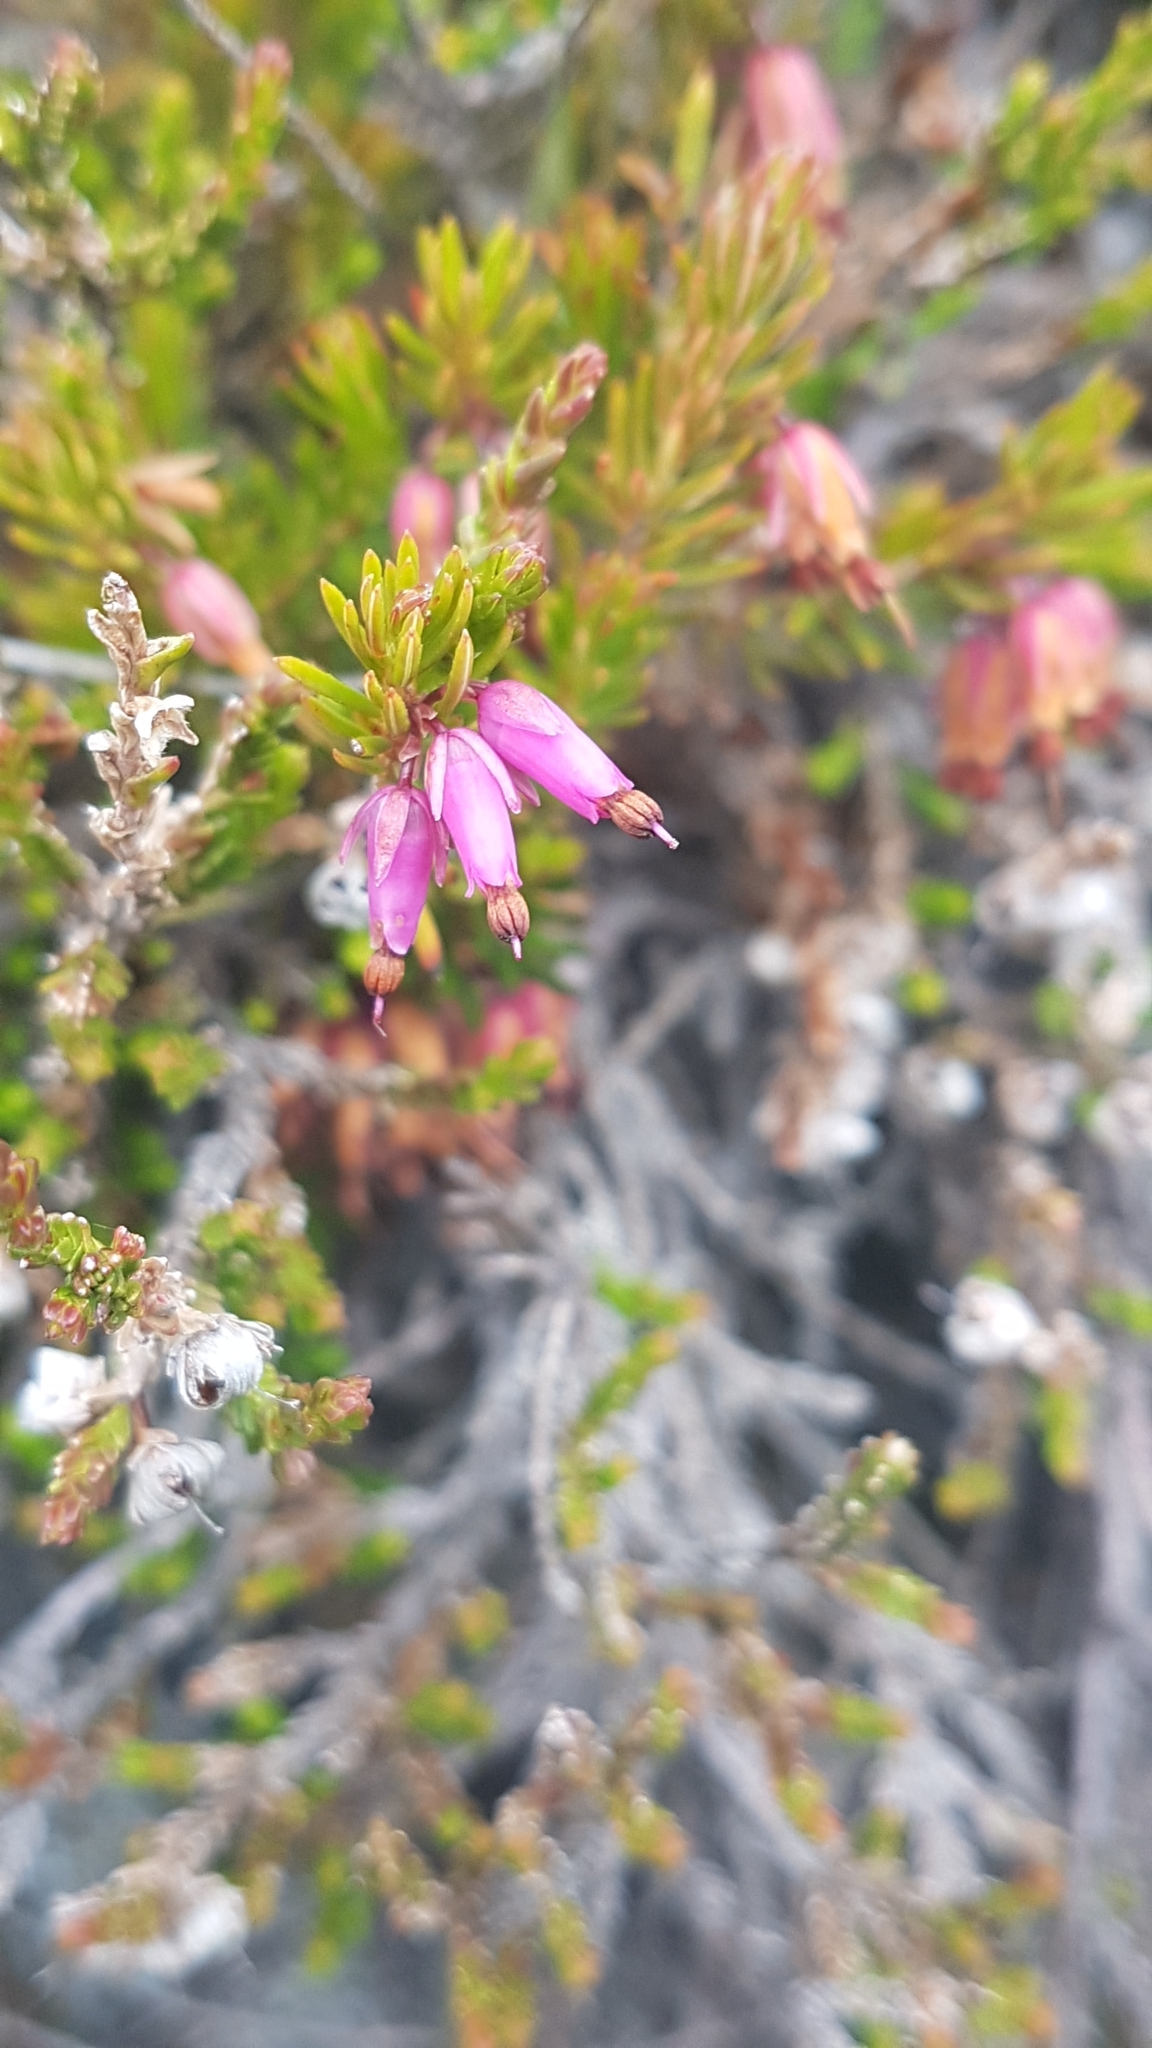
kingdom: Plantae
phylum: Tracheophyta
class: Magnoliopsida
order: Ericales
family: Ericaceae
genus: Erica
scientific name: Erica carnea
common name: Winter heath
